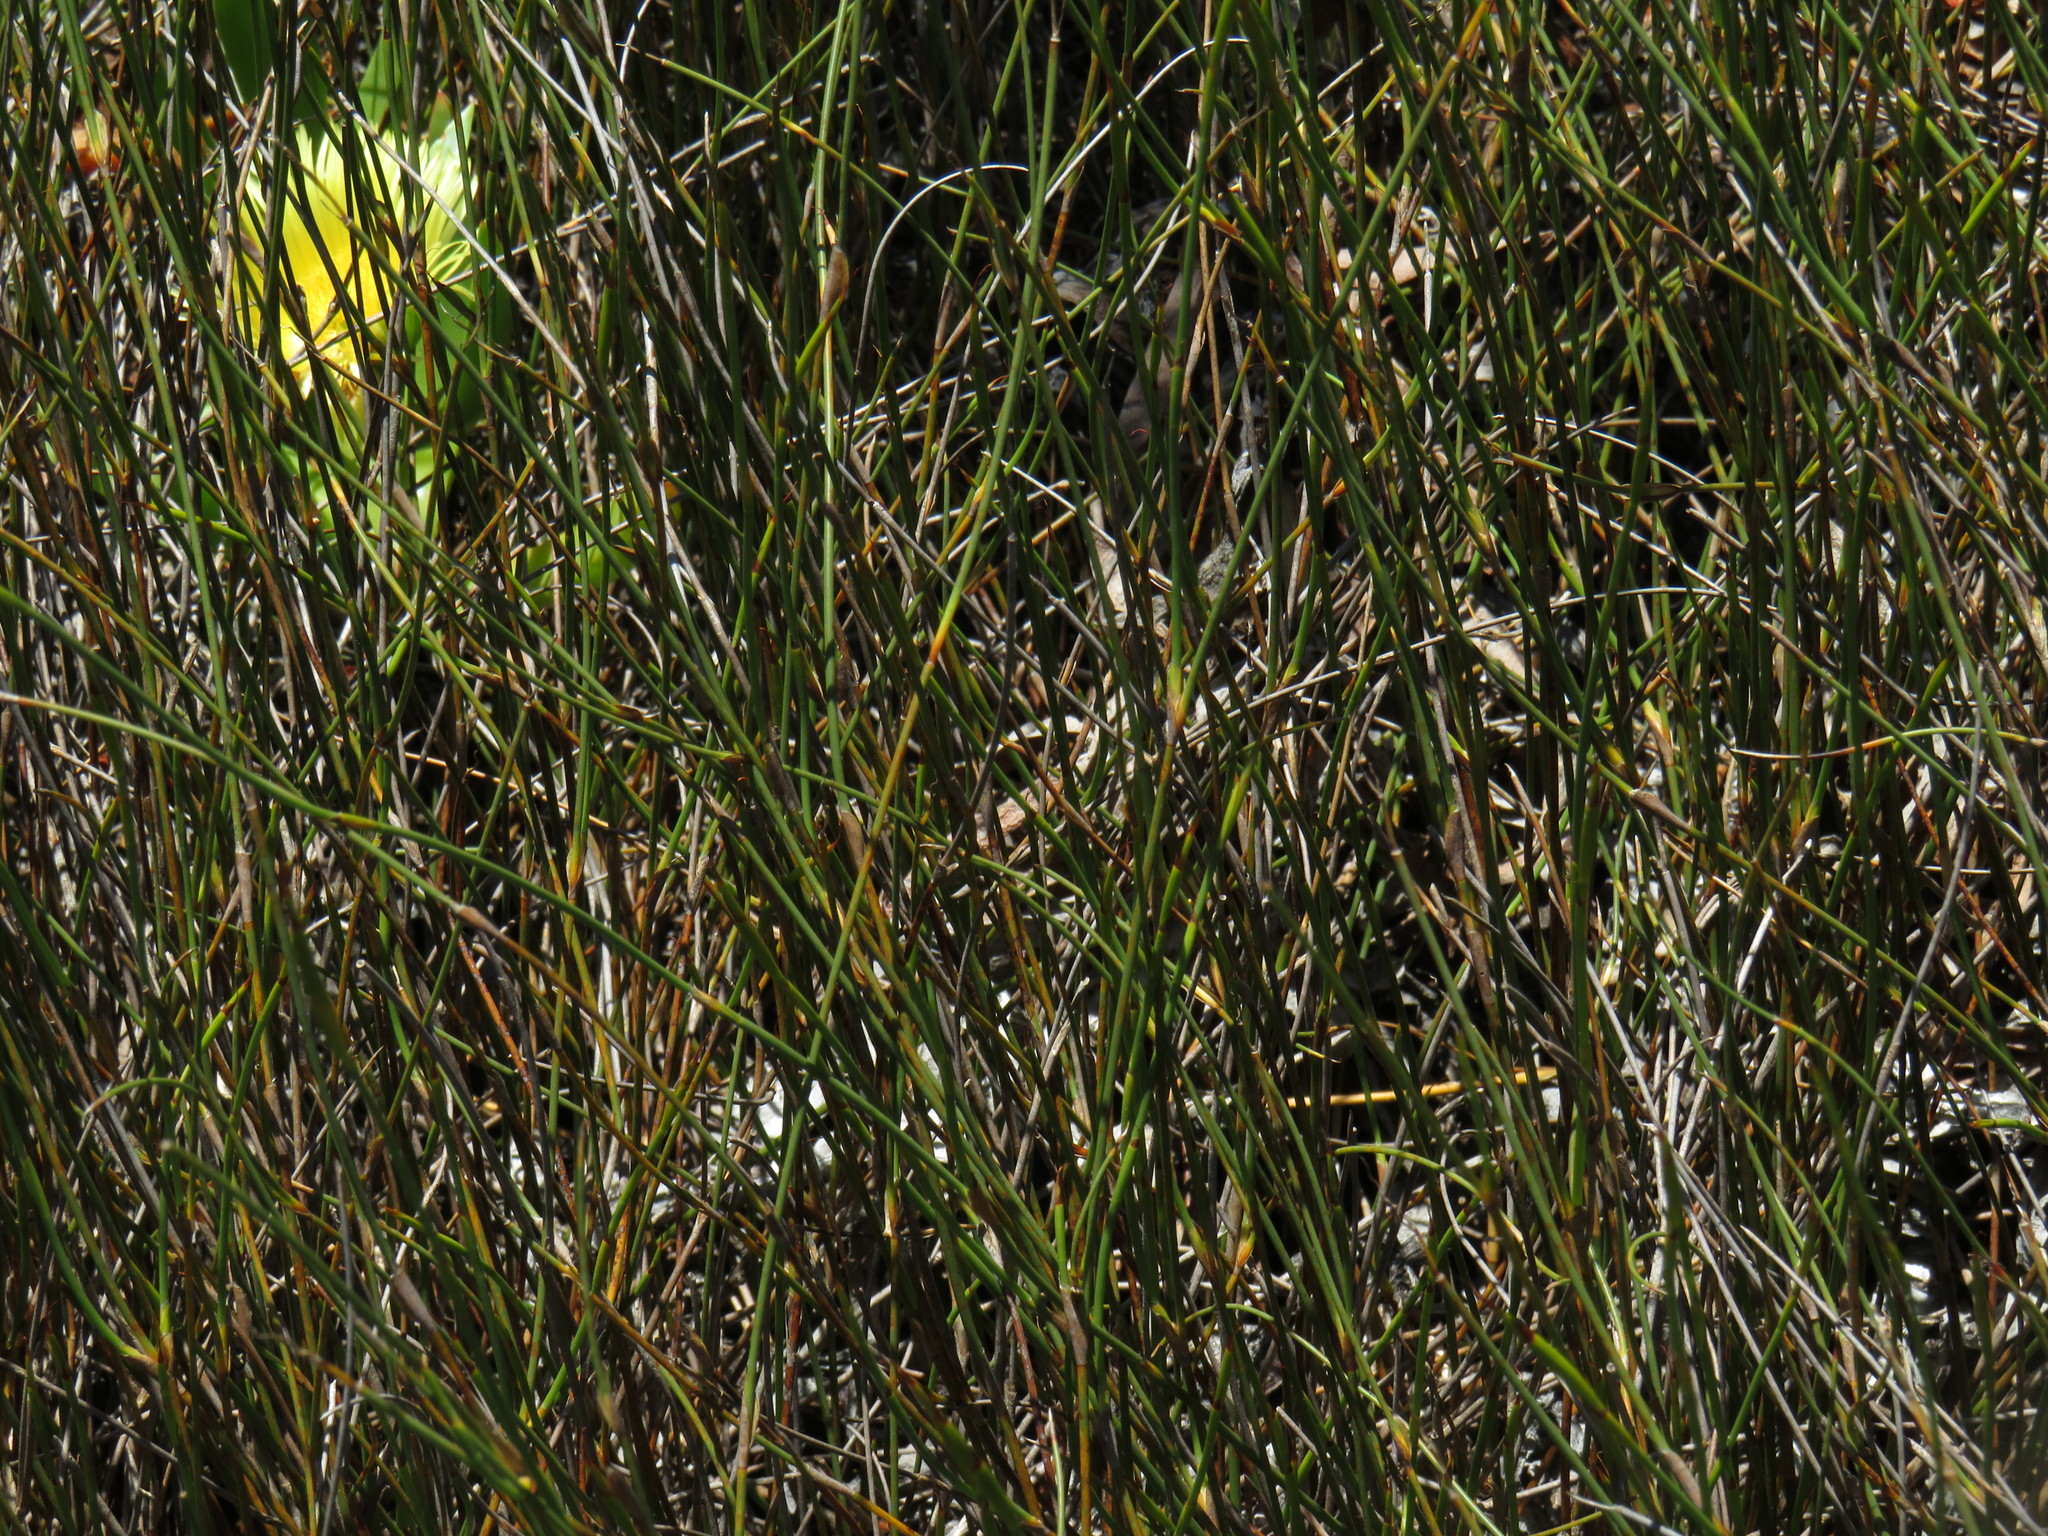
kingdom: Plantae
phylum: Tracheophyta
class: Liliopsida
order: Poales
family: Poaceae
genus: Ehrharta
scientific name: Ehrharta ramosa
